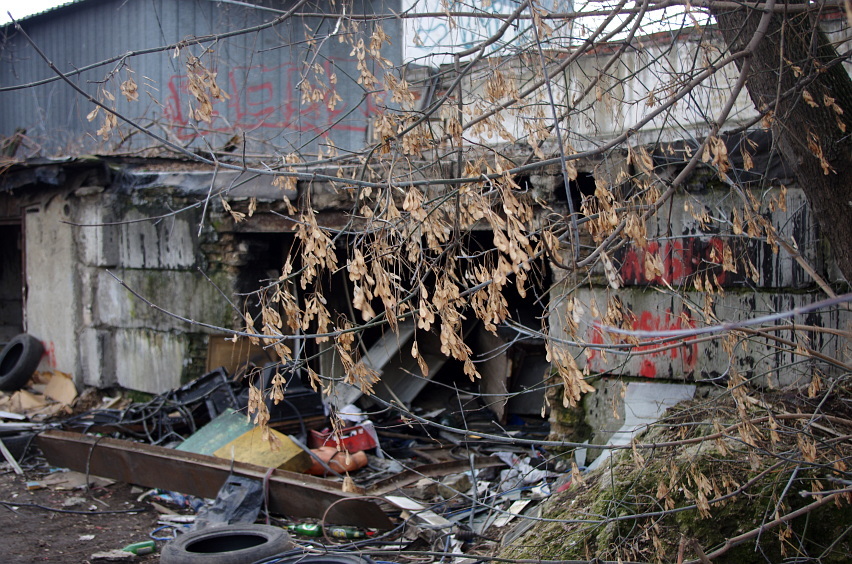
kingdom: Plantae
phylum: Tracheophyta
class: Magnoliopsida
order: Sapindales
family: Sapindaceae
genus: Acer
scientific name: Acer negundo
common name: Ashleaf maple
